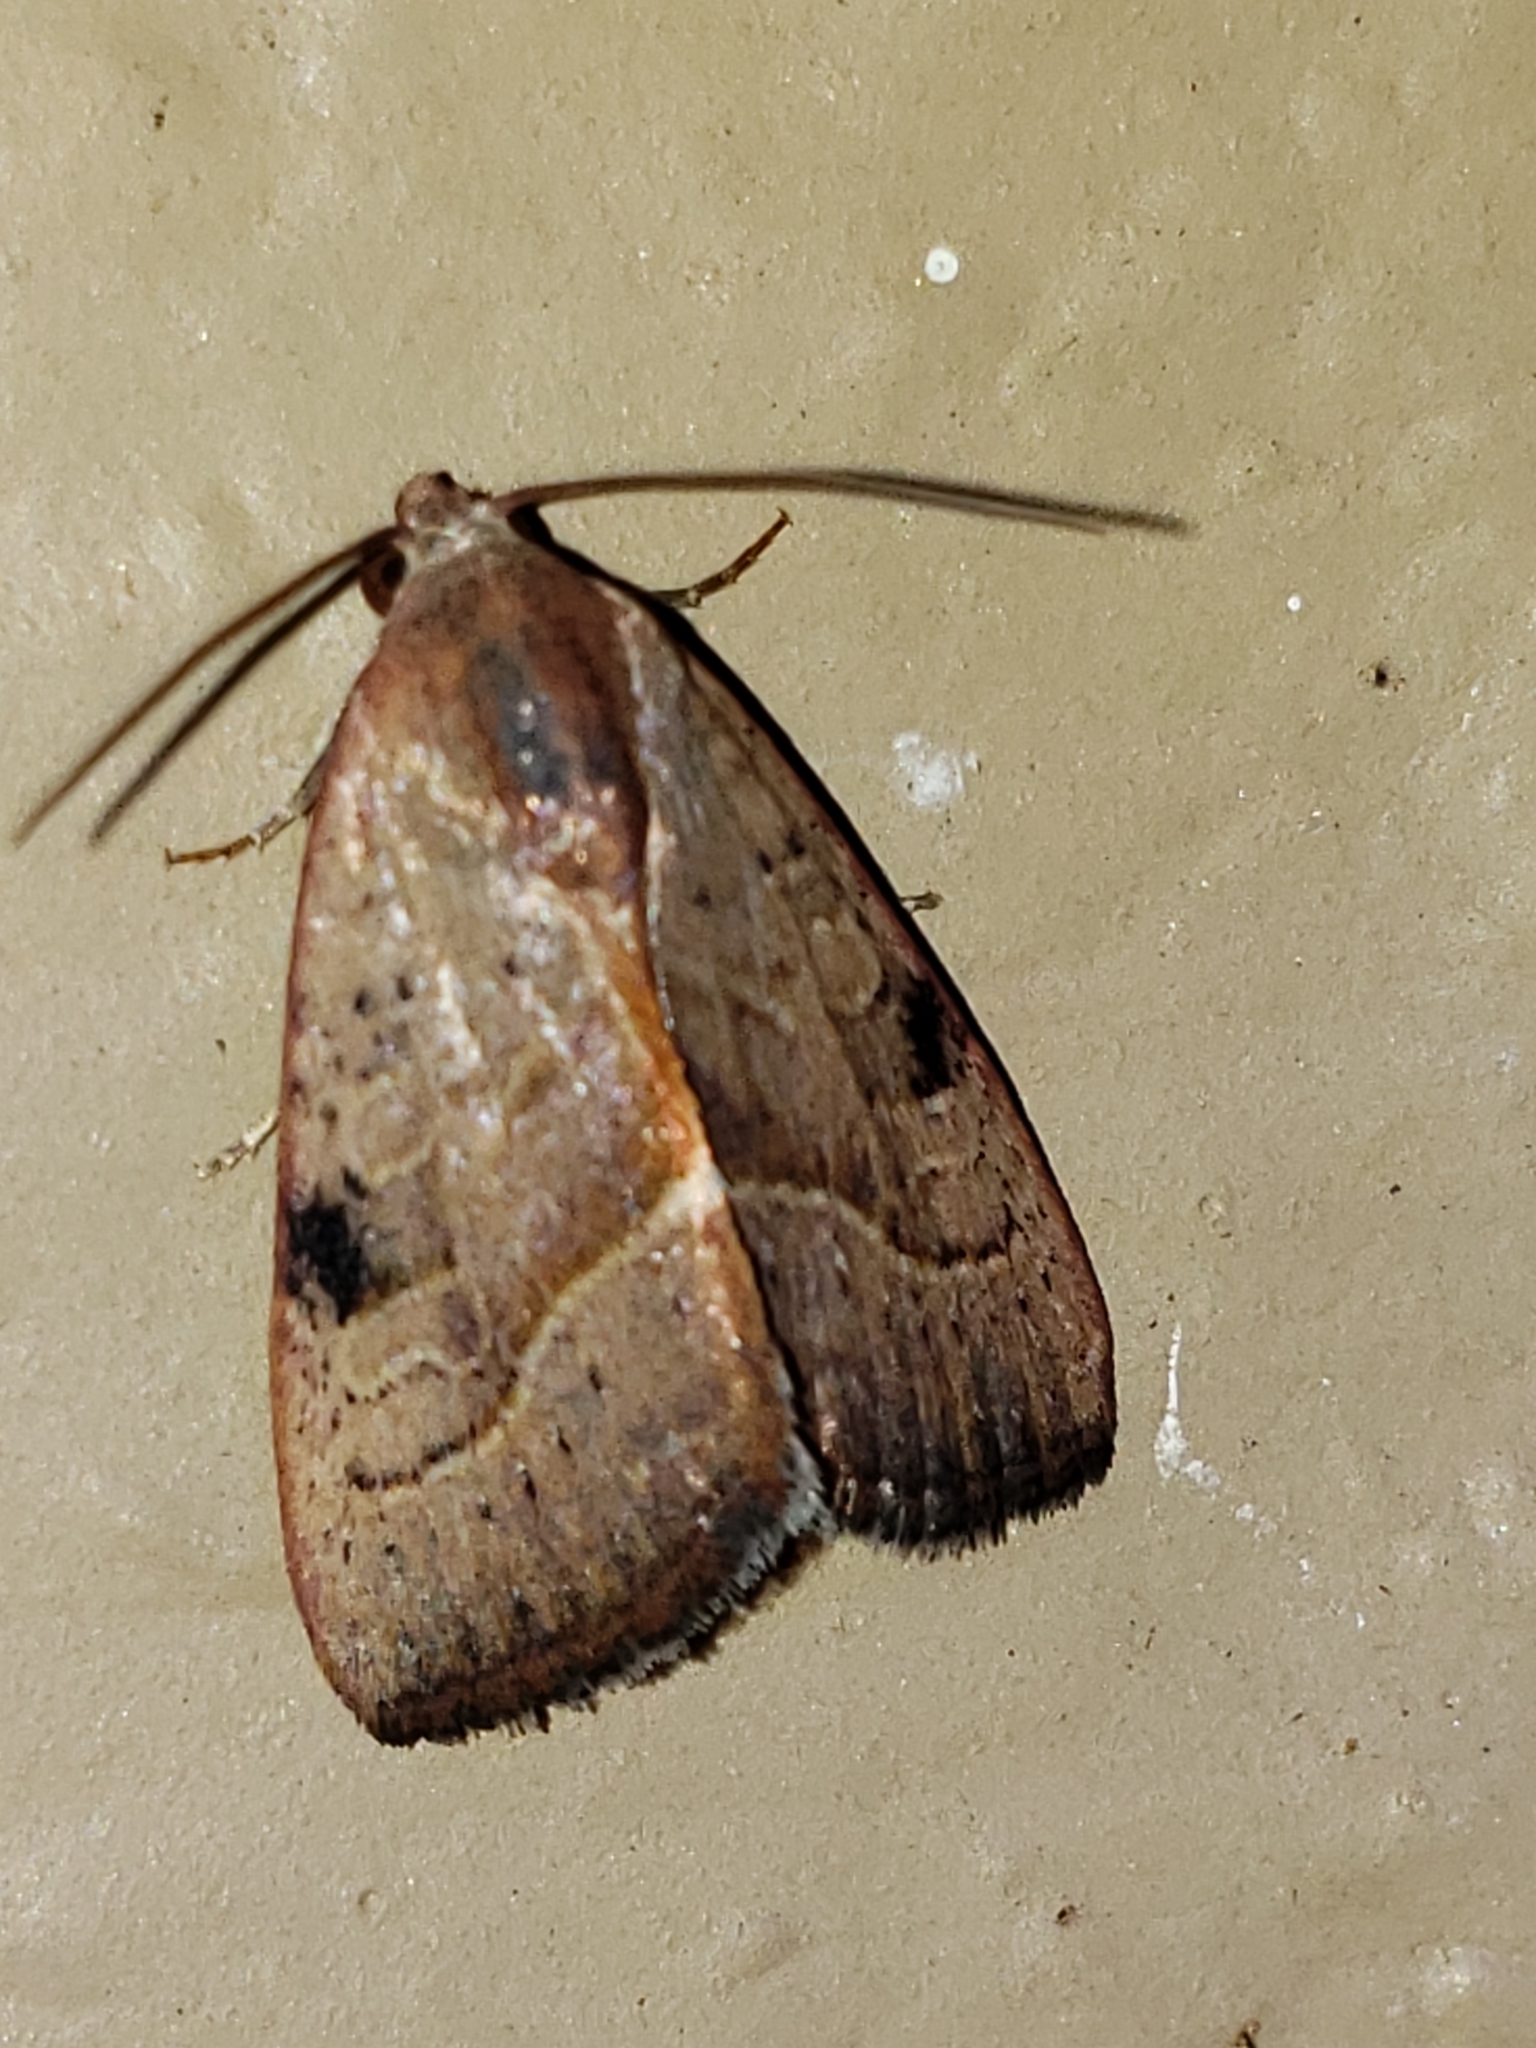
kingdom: Animalia
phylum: Arthropoda
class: Insecta
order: Lepidoptera
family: Noctuidae
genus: Galgula
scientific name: Galgula partita
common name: Wedgeling
